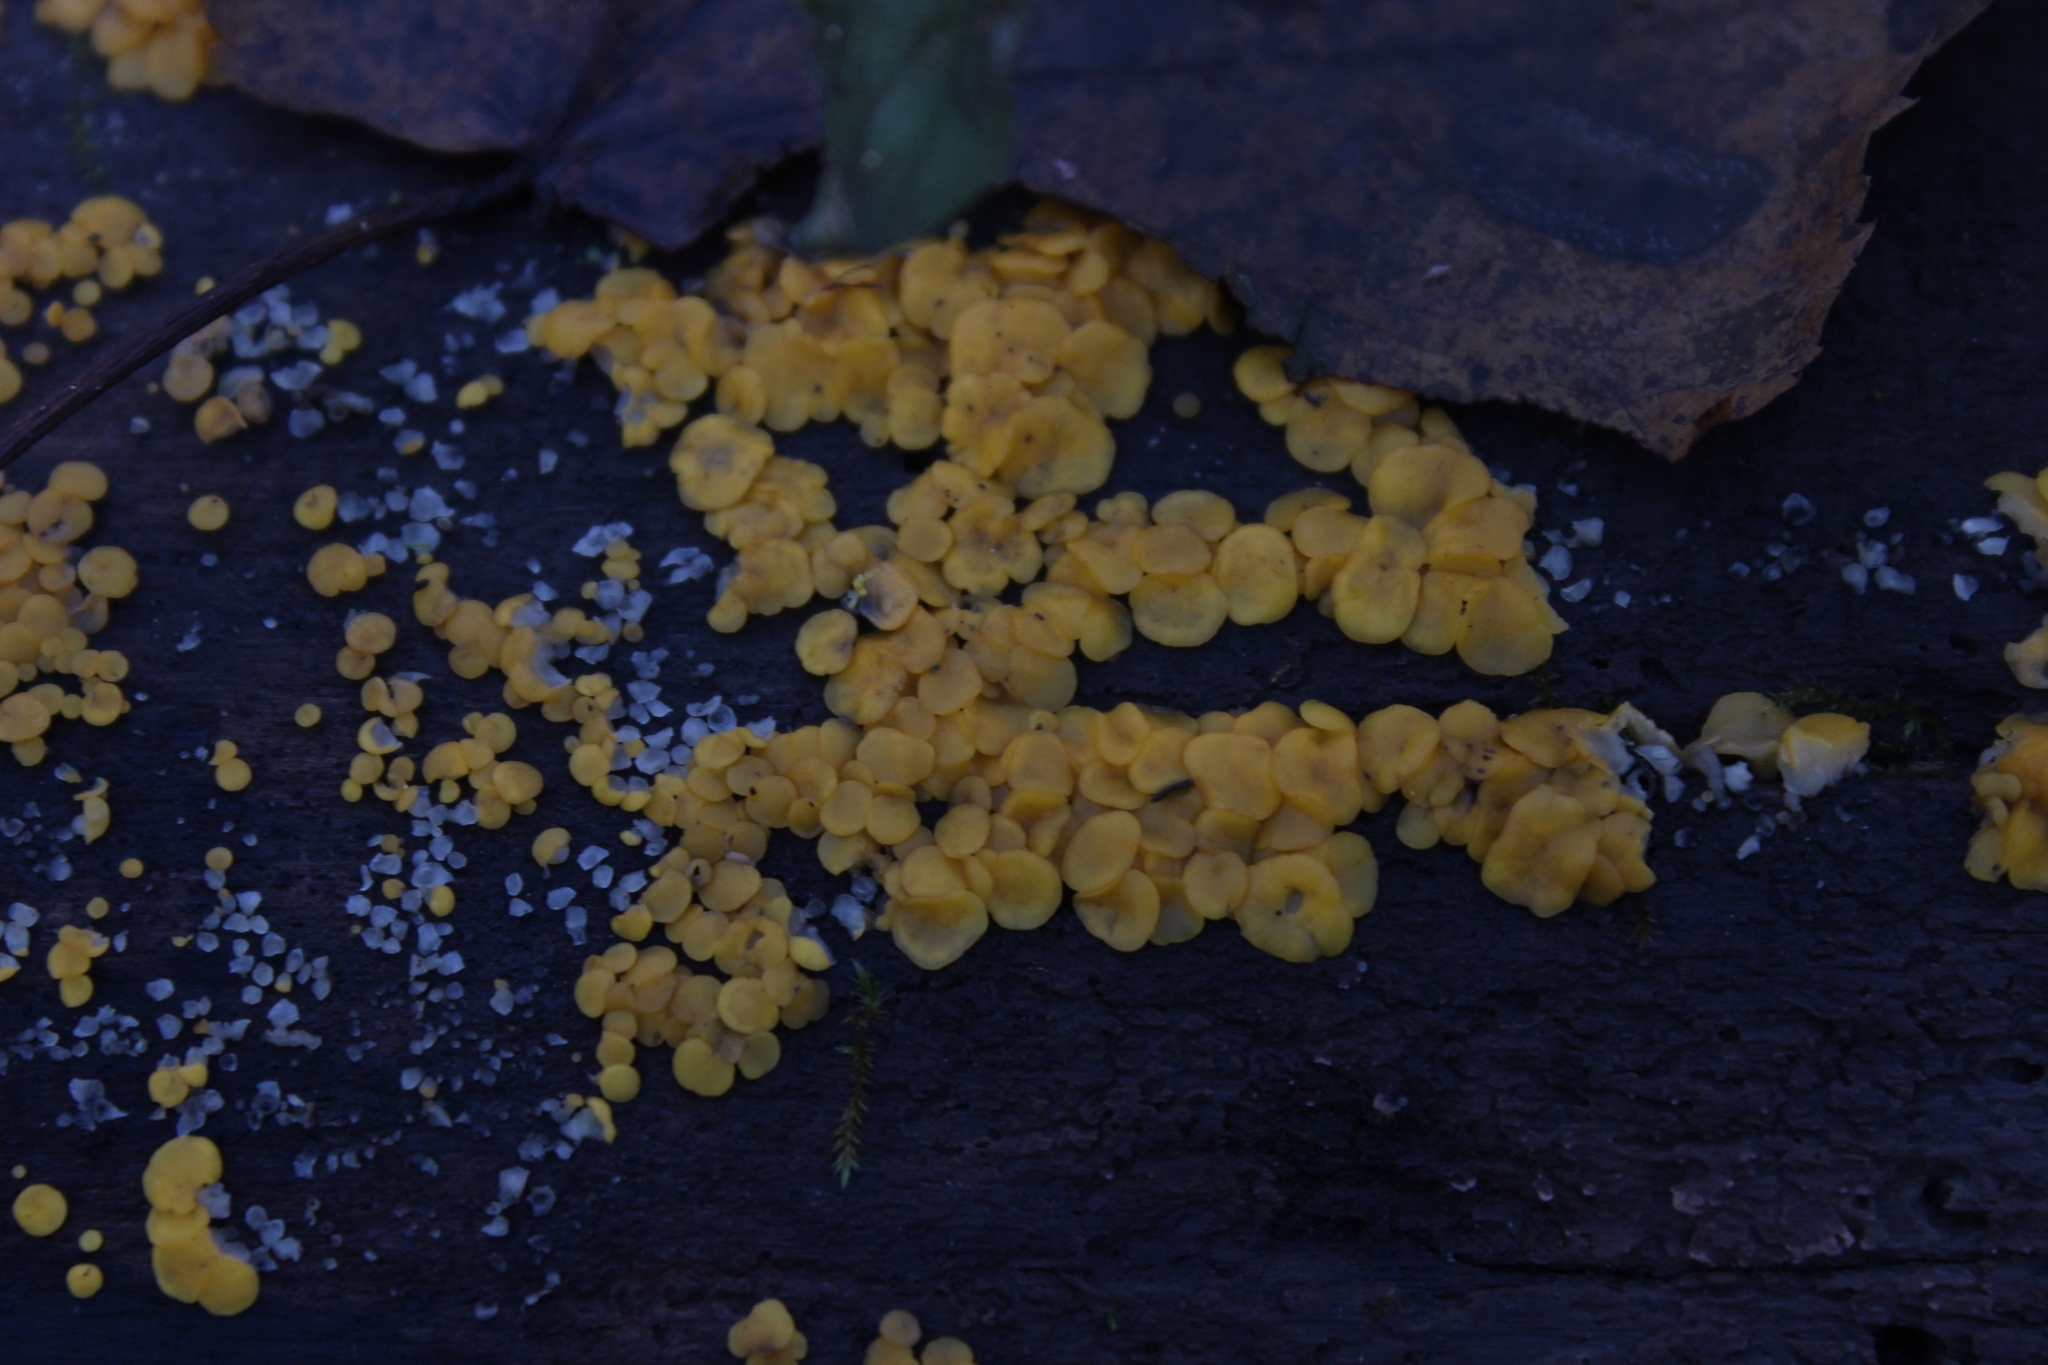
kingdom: Fungi
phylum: Ascomycota
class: Leotiomycetes
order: Helotiales
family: Pezizellaceae
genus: Calycina
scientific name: Calycina citrina
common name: Yellow fairy cups
